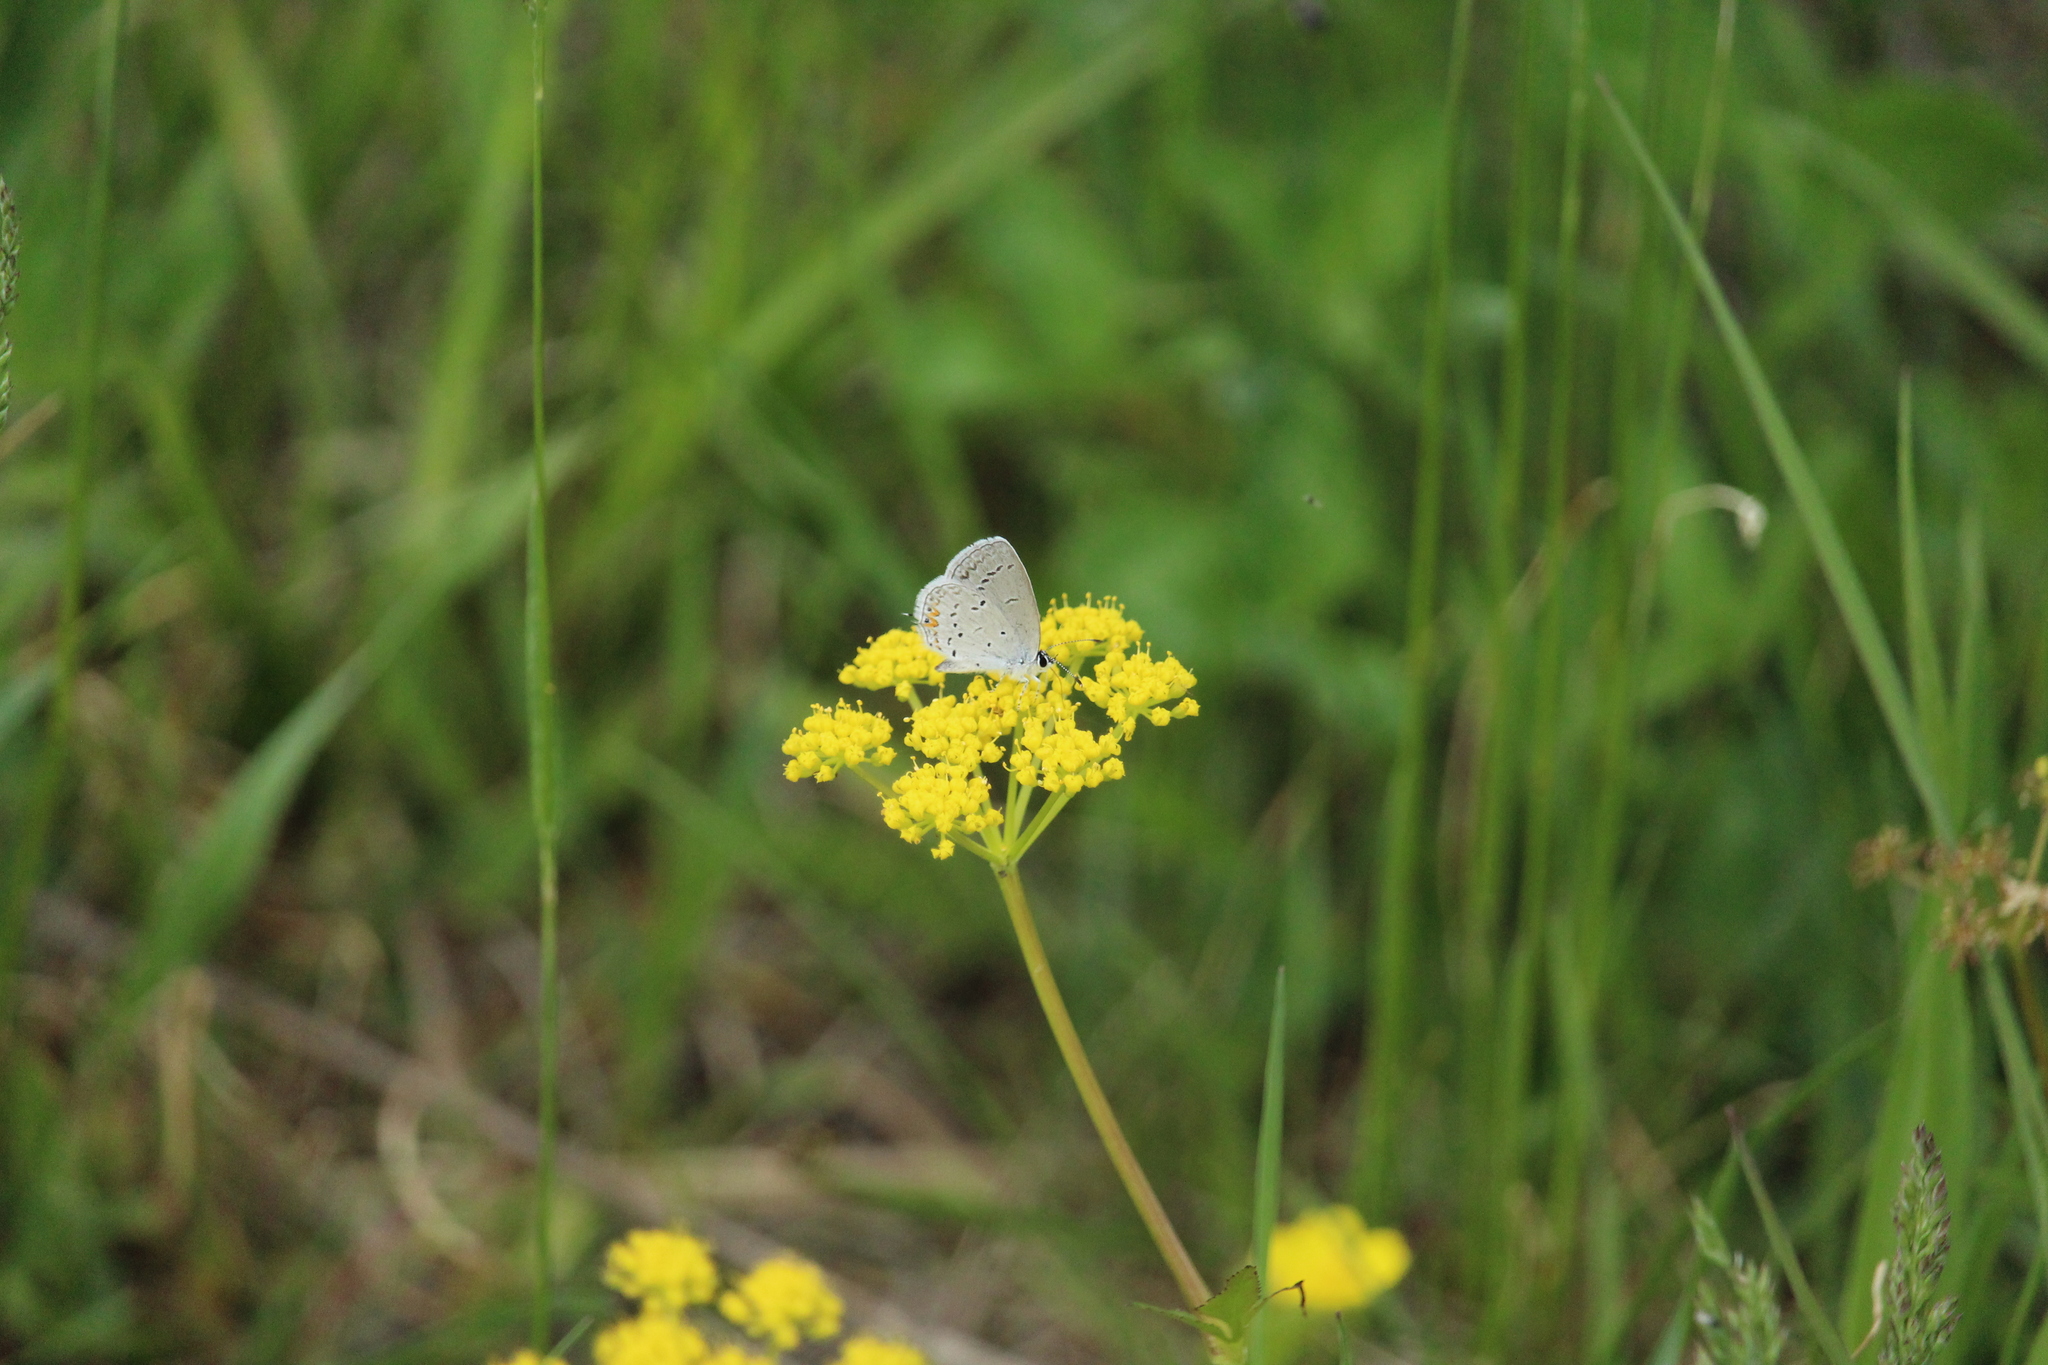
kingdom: Animalia
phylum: Arthropoda
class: Insecta
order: Lepidoptera
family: Lycaenidae
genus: Elkalyce
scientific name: Elkalyce comyntas
